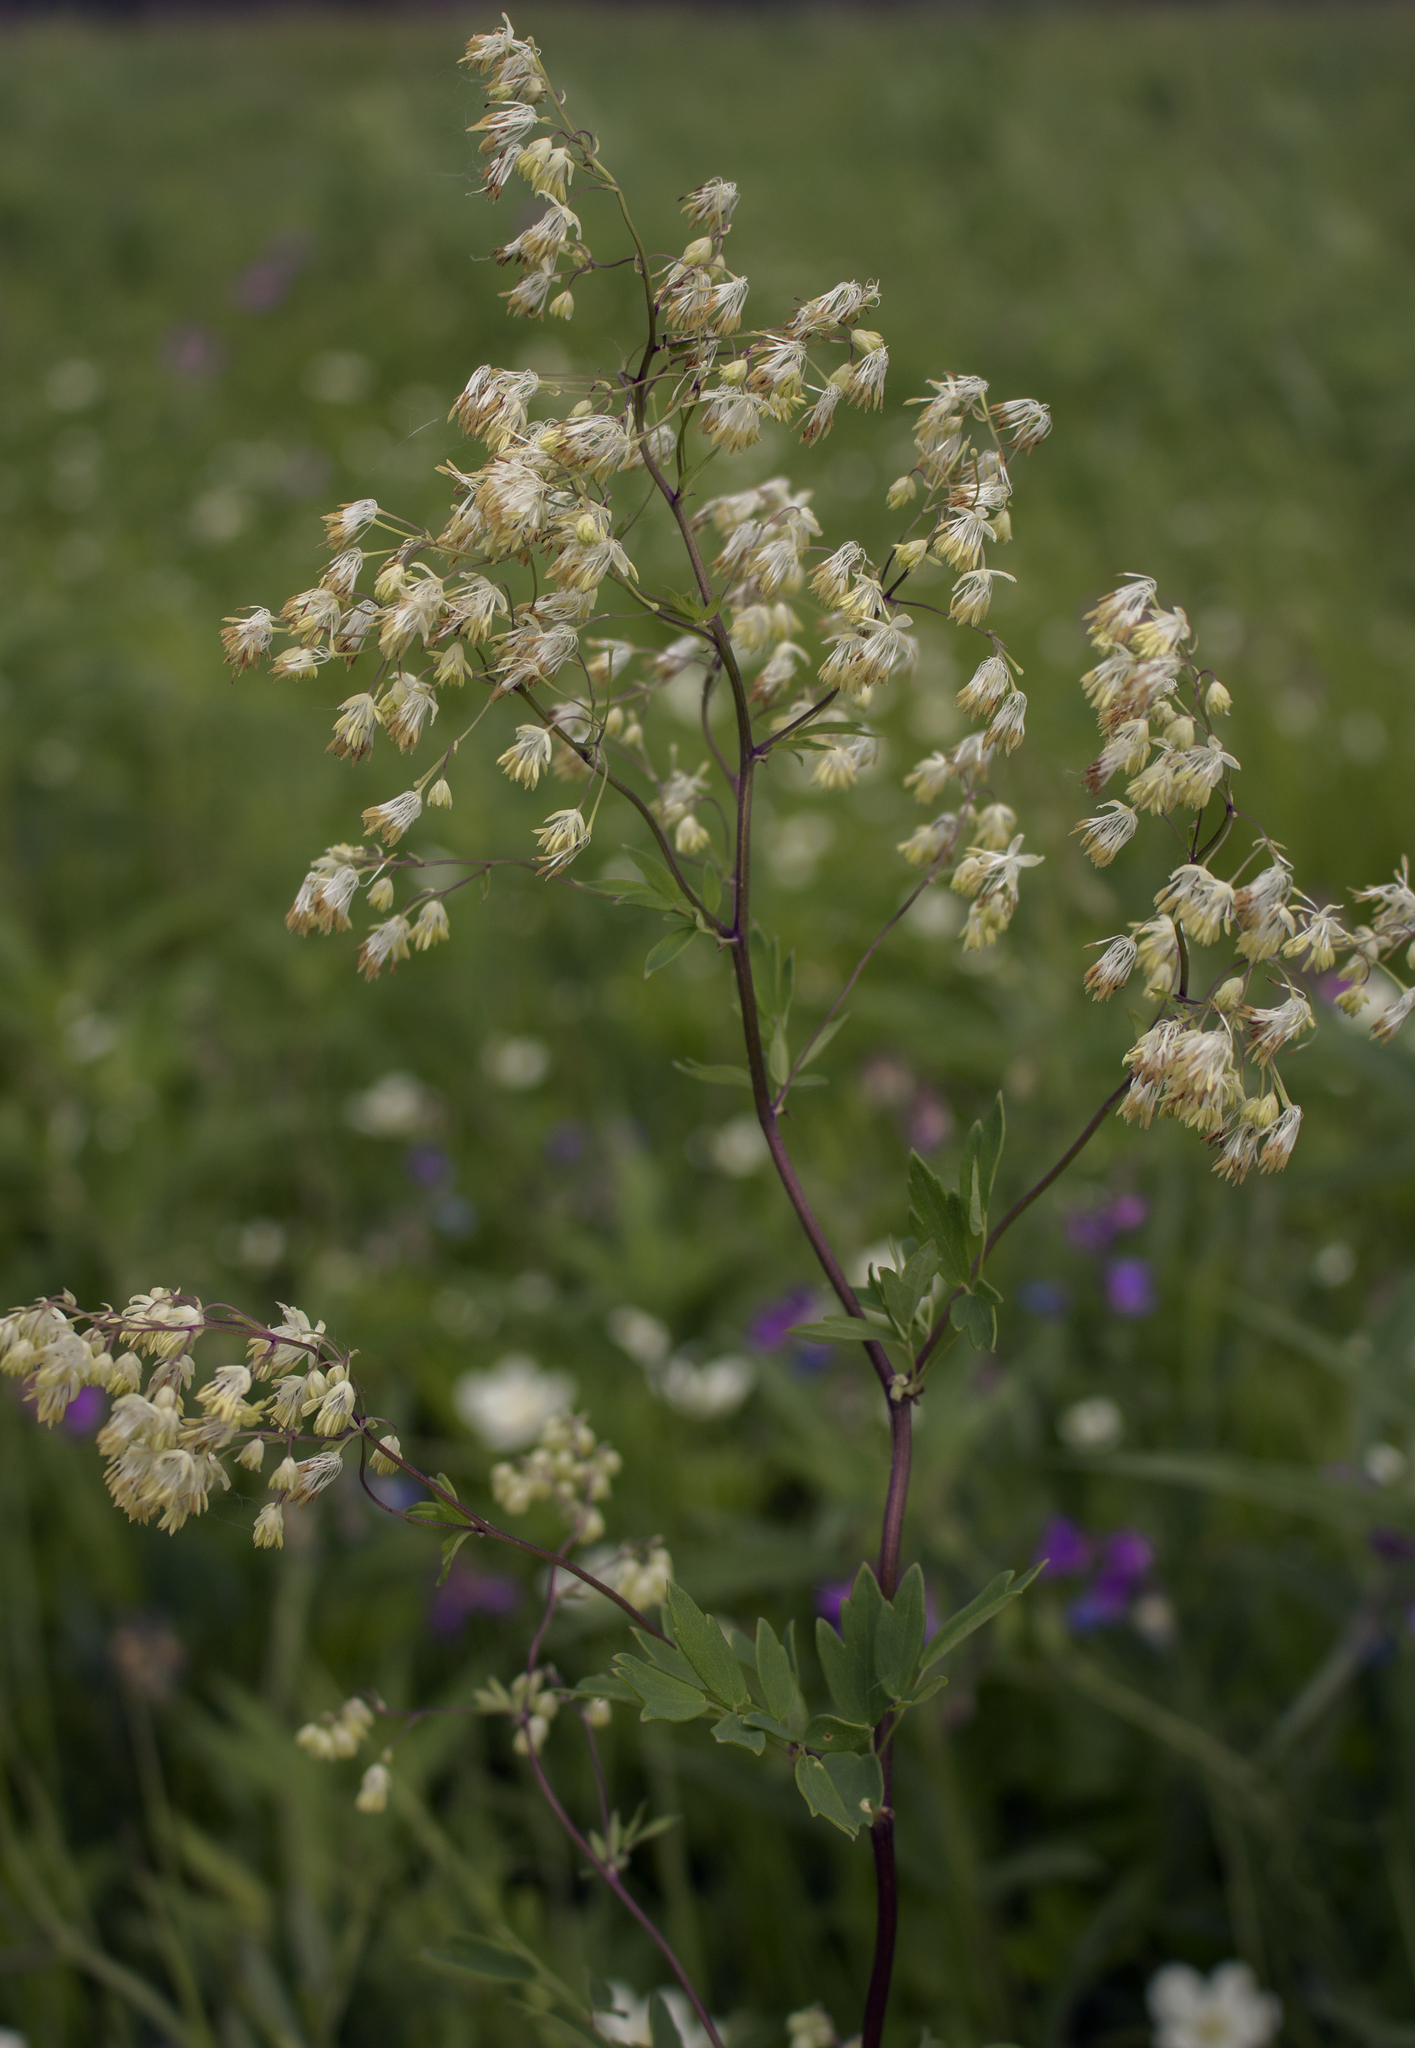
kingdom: Plantae
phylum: Tracheophyta
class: Magnoliopsida
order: Ranunculales
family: Ranunculaceae
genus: Thalictrum
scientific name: Thalictrum dasycarpum
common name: Purple meadow-rue
